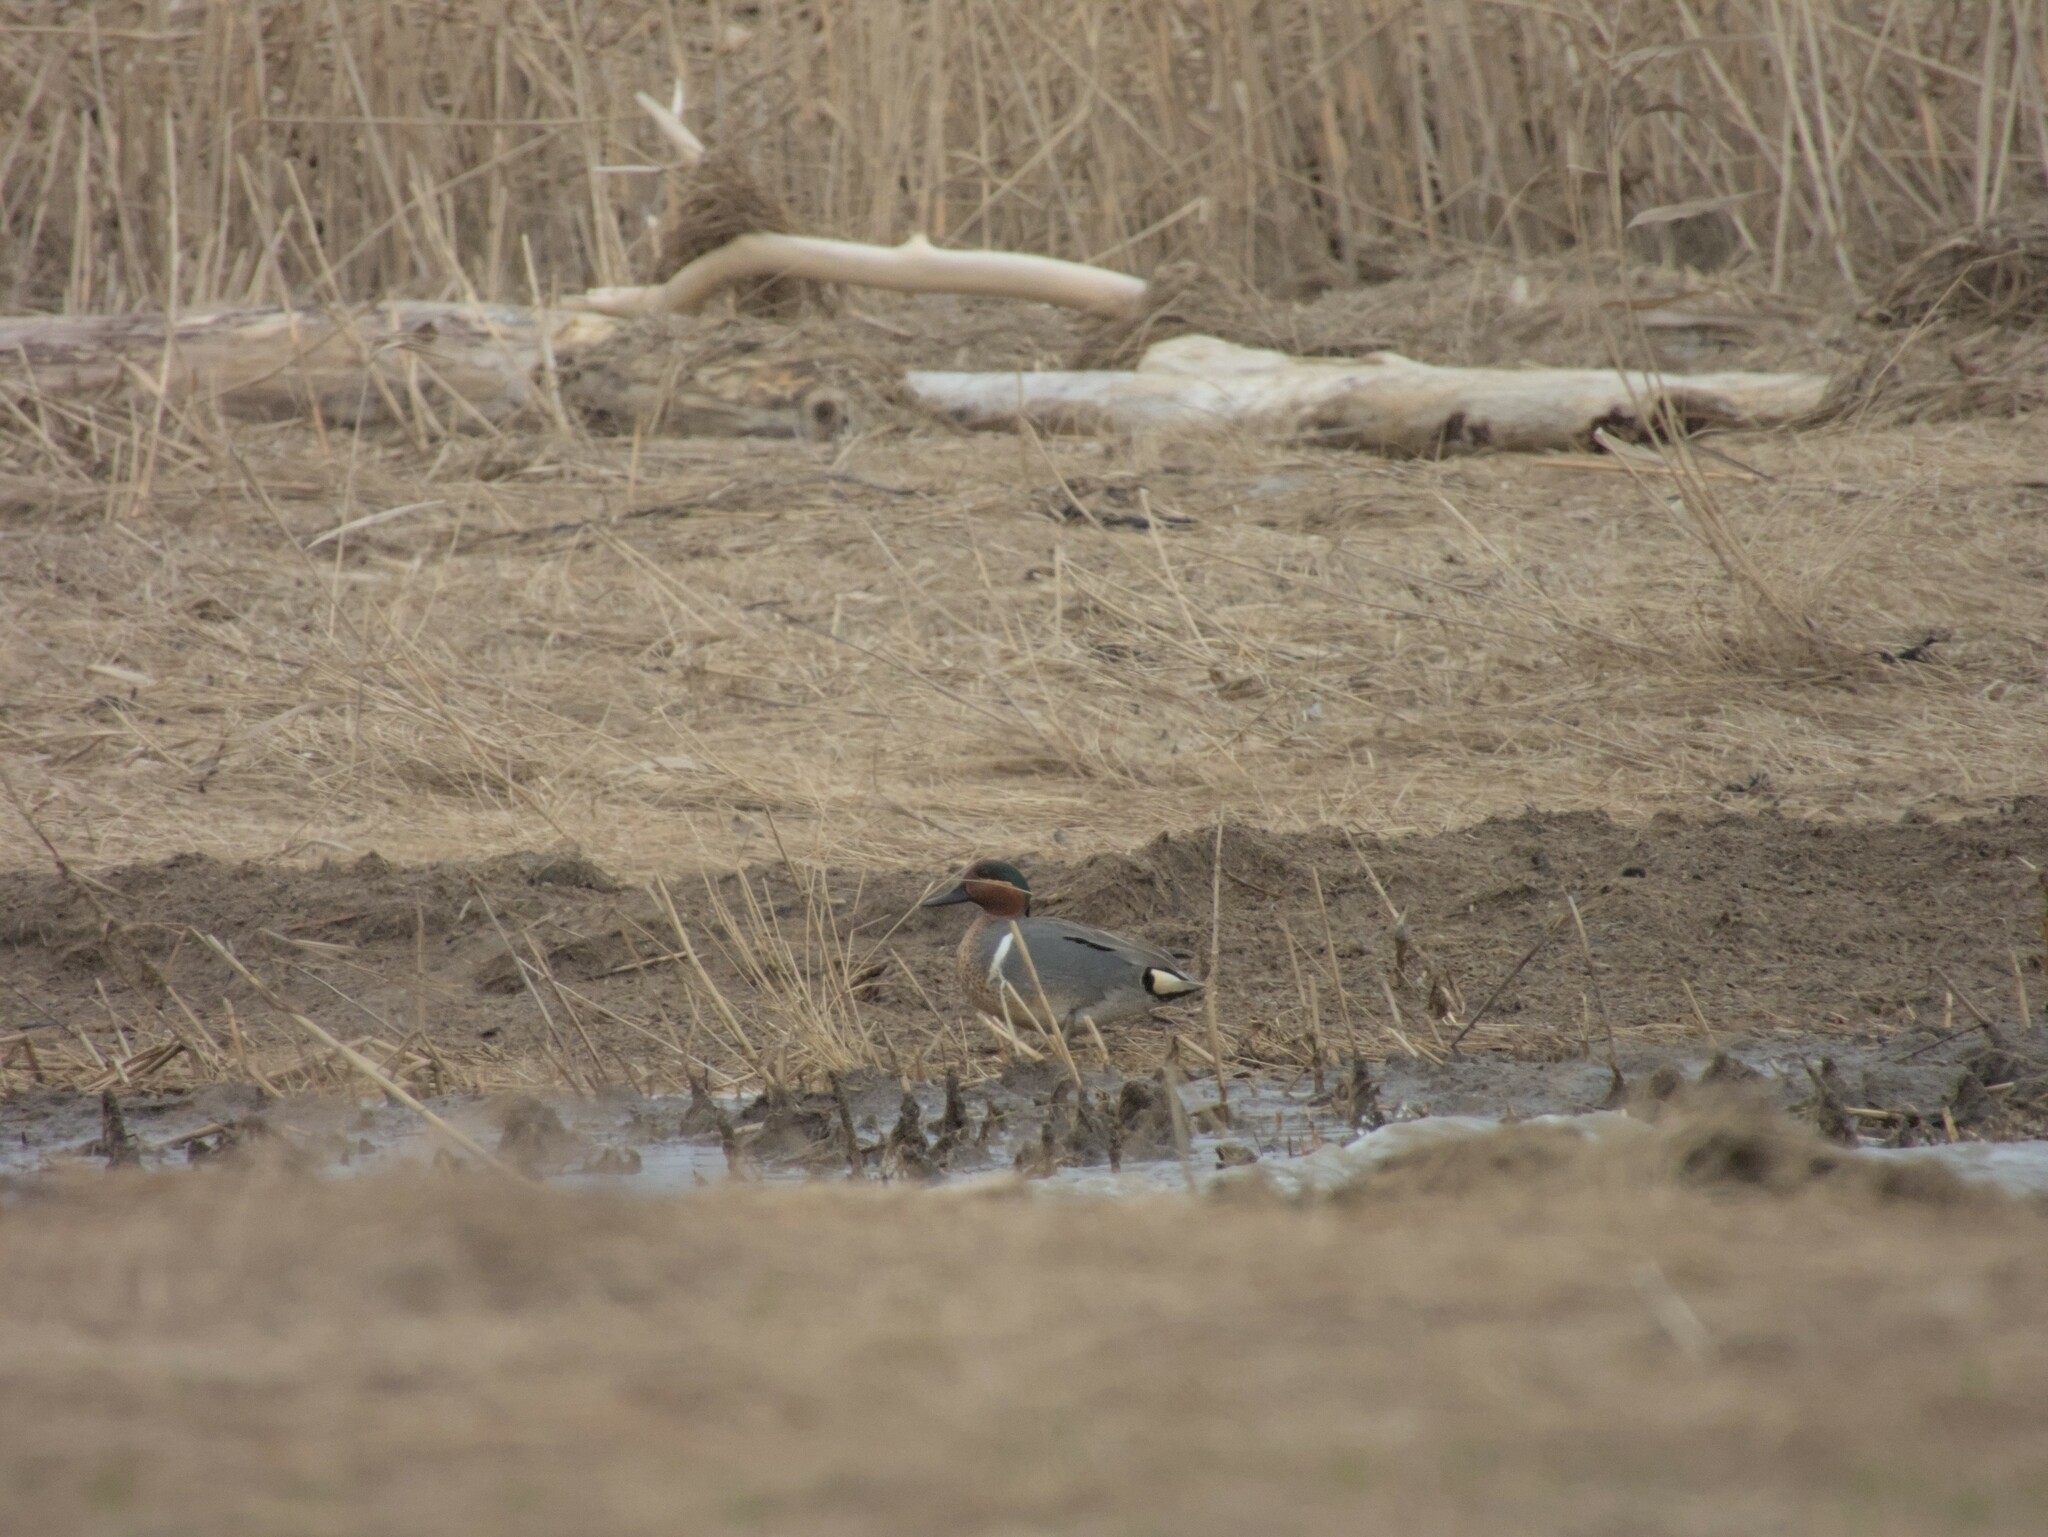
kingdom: Animalia
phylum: Chordata
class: Aves
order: Anseriformes
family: Anatidae
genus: Anas
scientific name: Anas crecca
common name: Eurasian teal
